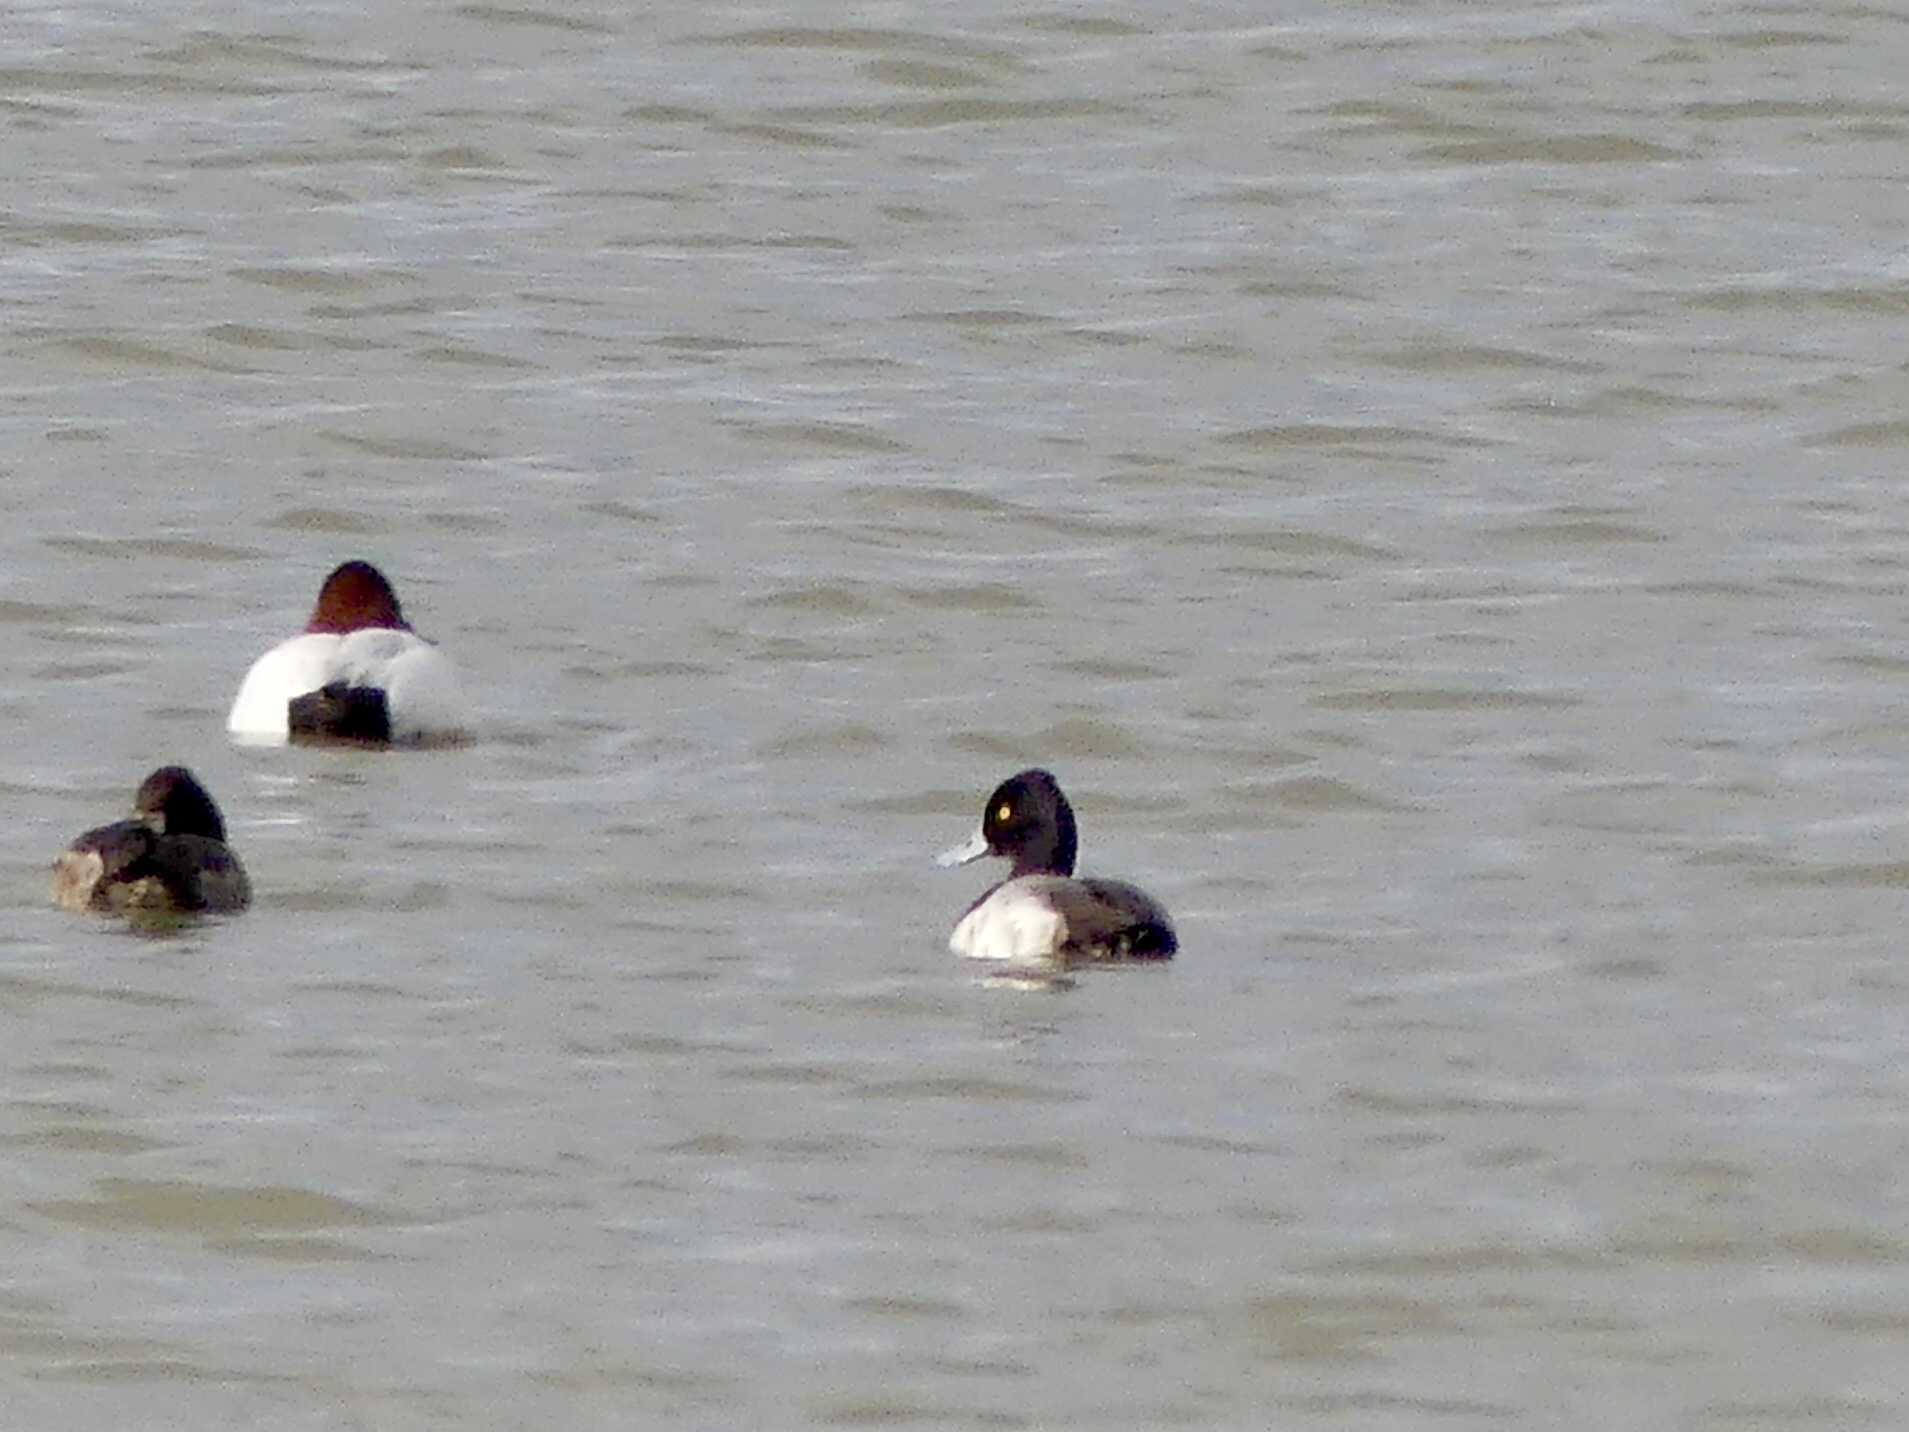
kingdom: Animalia
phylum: Chordata
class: Aves
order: Anseriformes
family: Anatidae
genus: Aythya
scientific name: Aythya affinis
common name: Lesser scaup
